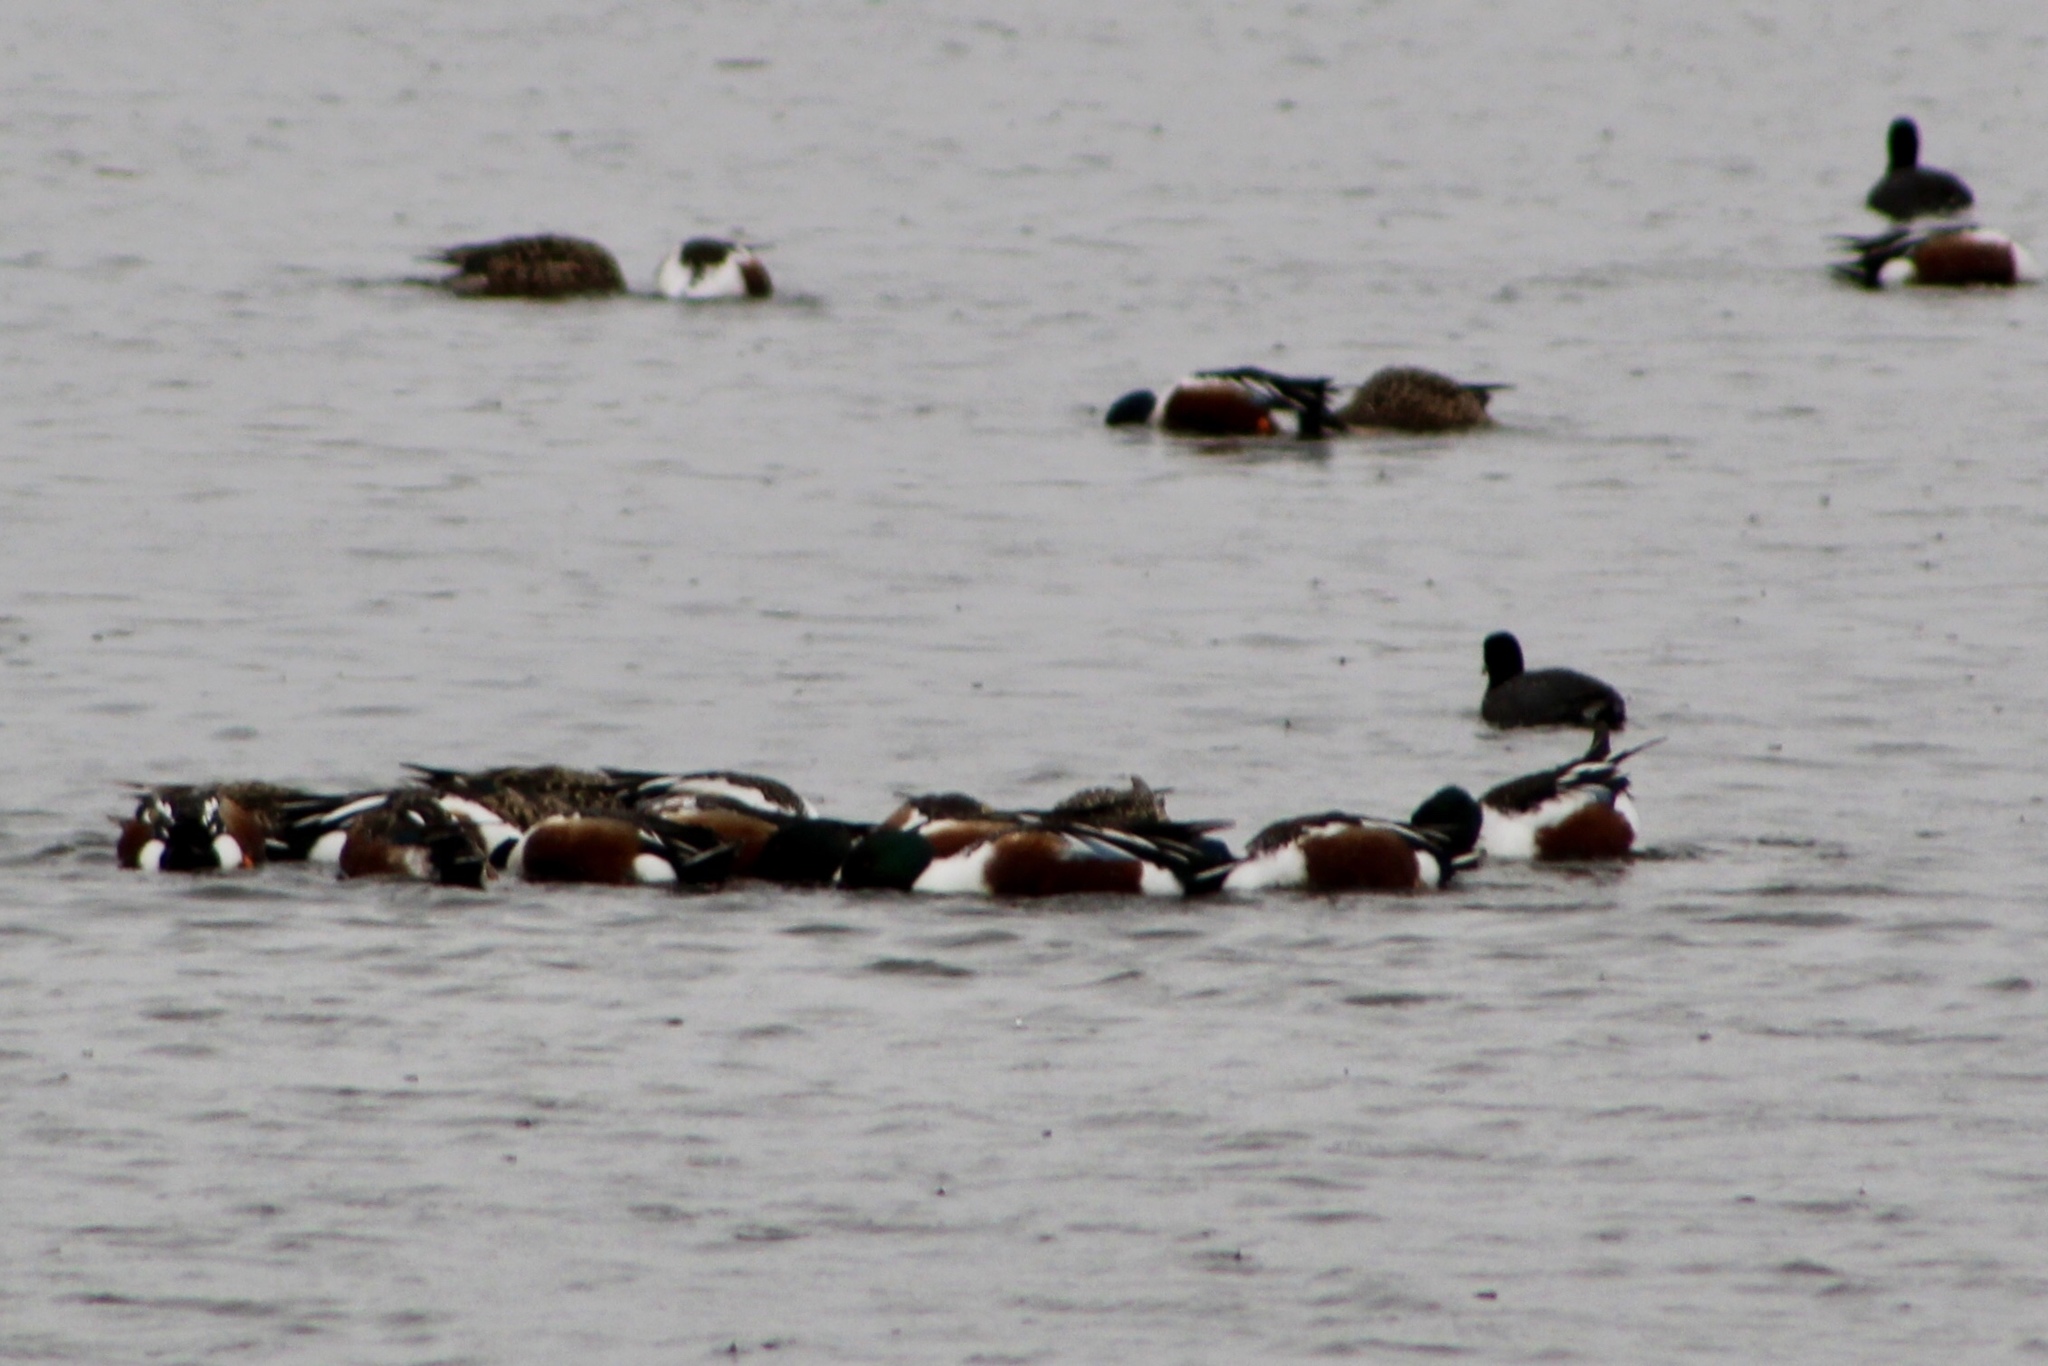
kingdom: Animalia
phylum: Chordata
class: Aves
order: Anseriformes
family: Anatidae
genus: Spatula
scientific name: Spatula clypeata
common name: Northern shoveler
